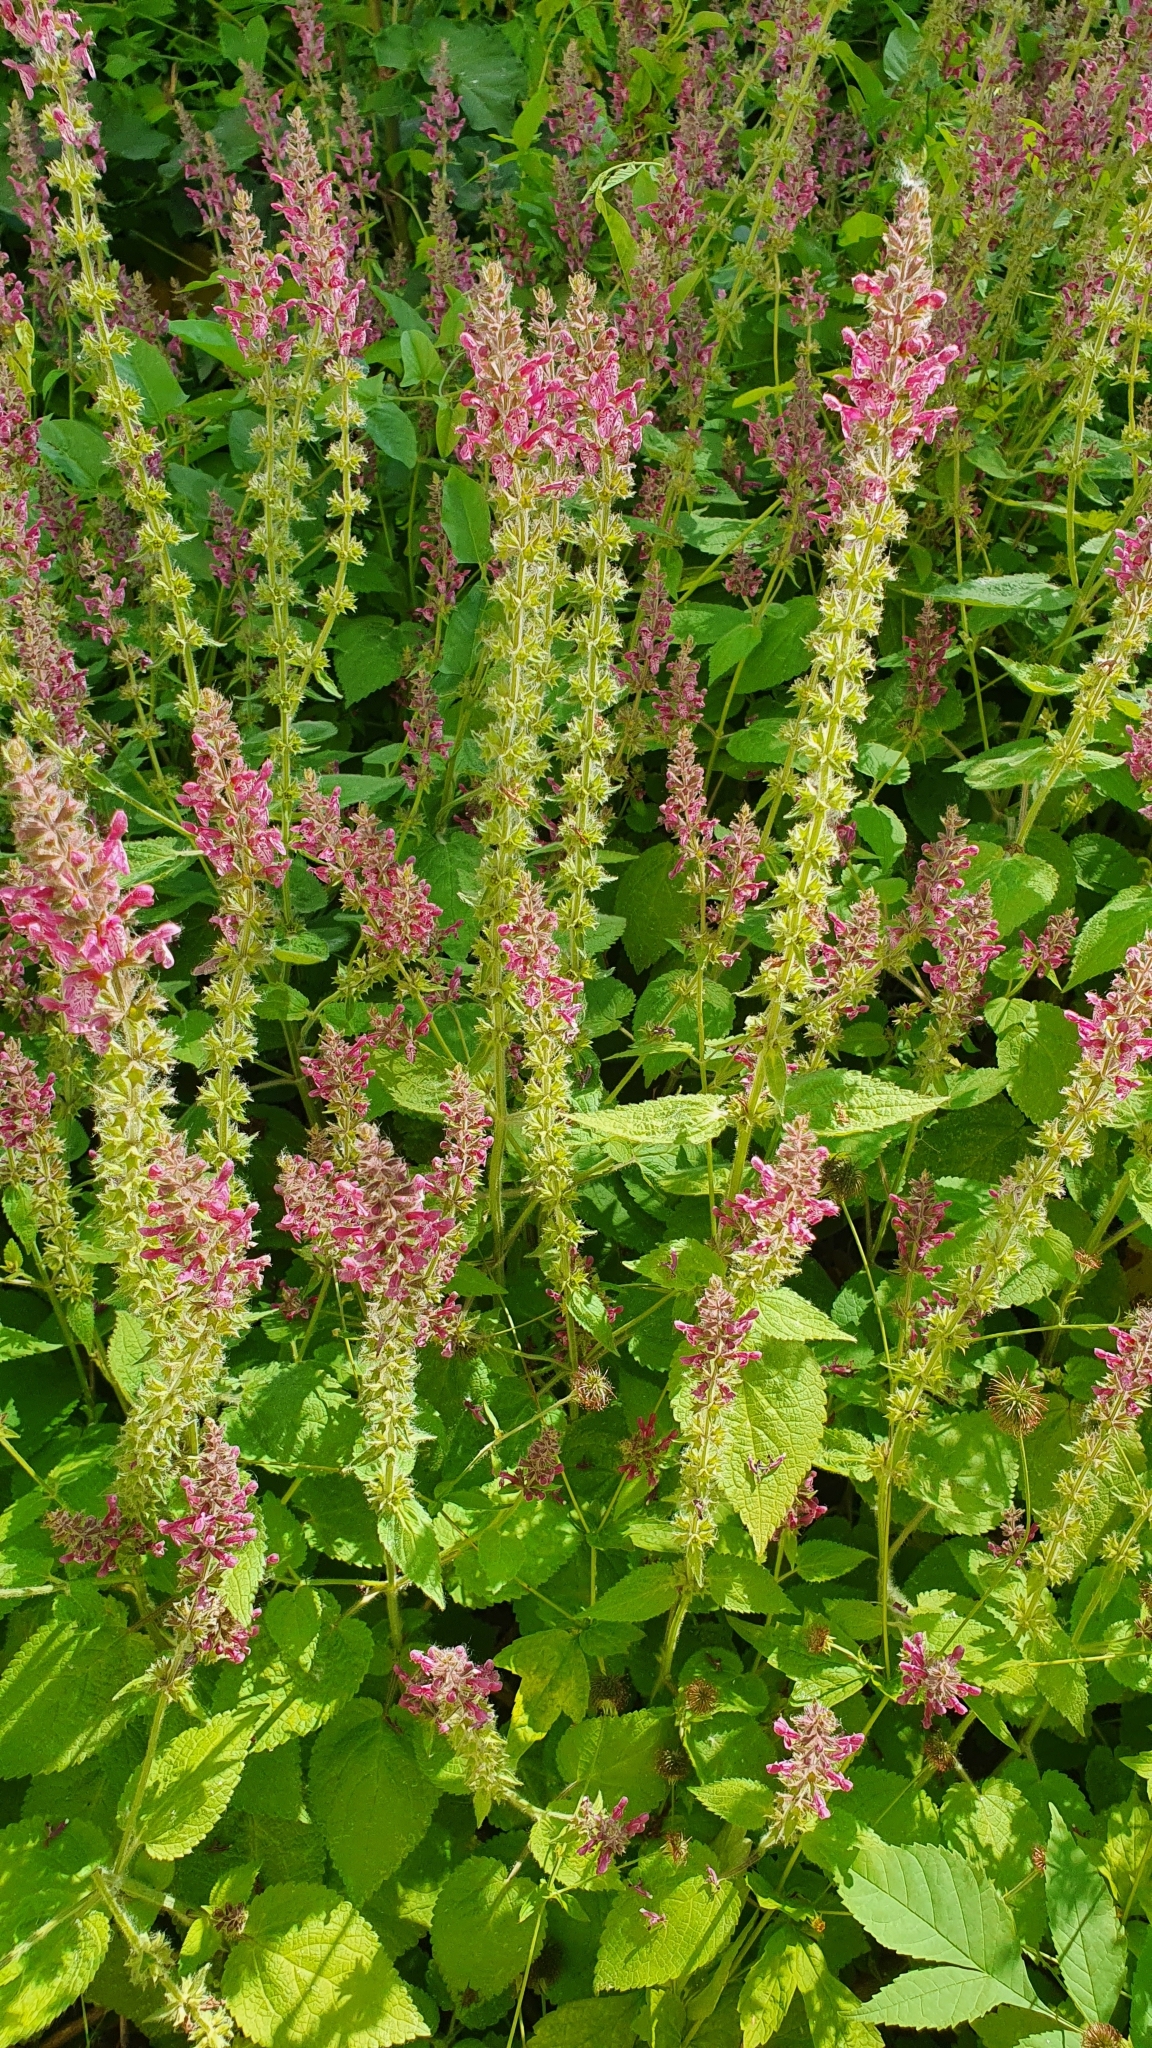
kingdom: Plantae
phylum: Tracheophyta
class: Magnoliopsida
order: Lamiales
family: Lamiaceae
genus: Stachys
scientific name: Stachys sylvatica
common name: Hedge woundwort
